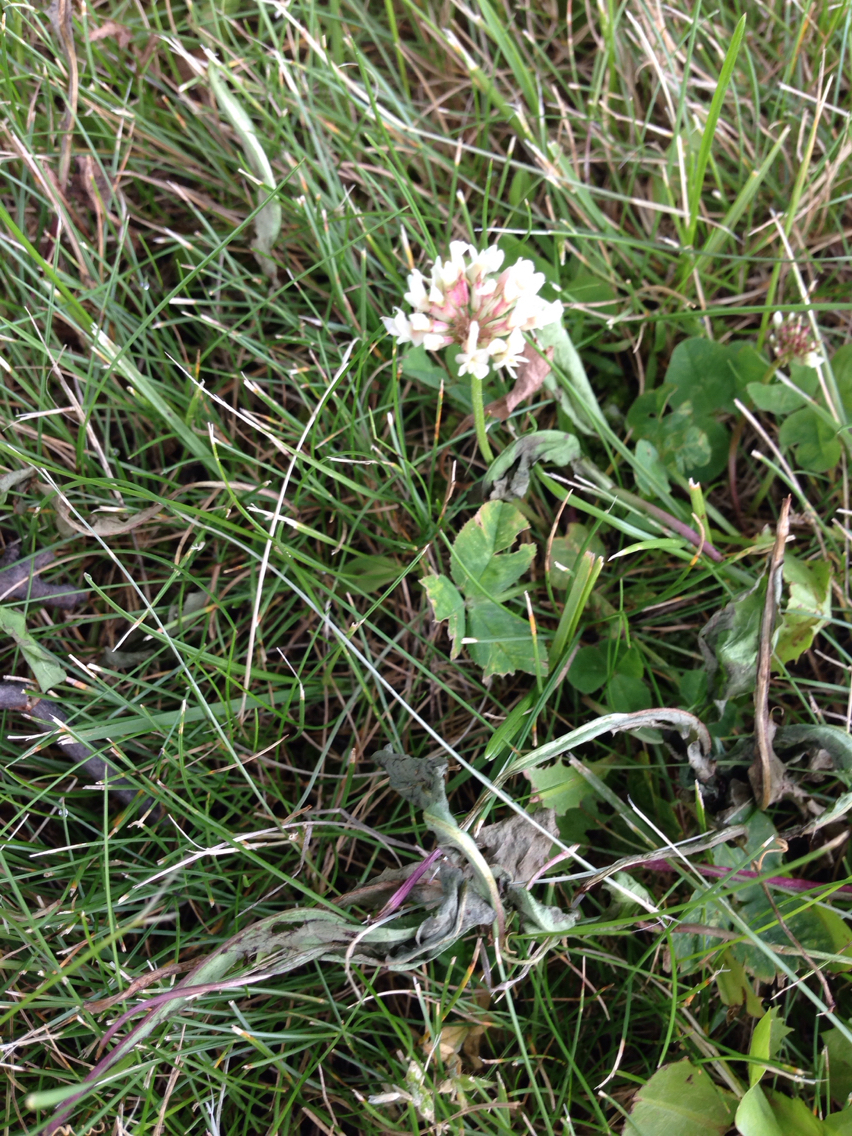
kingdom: Plantae
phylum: Tracheophyta
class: Magnoliopsida
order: Fabales
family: Fabaceae
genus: Trifolium
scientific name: Trifolium repens
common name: White clover
